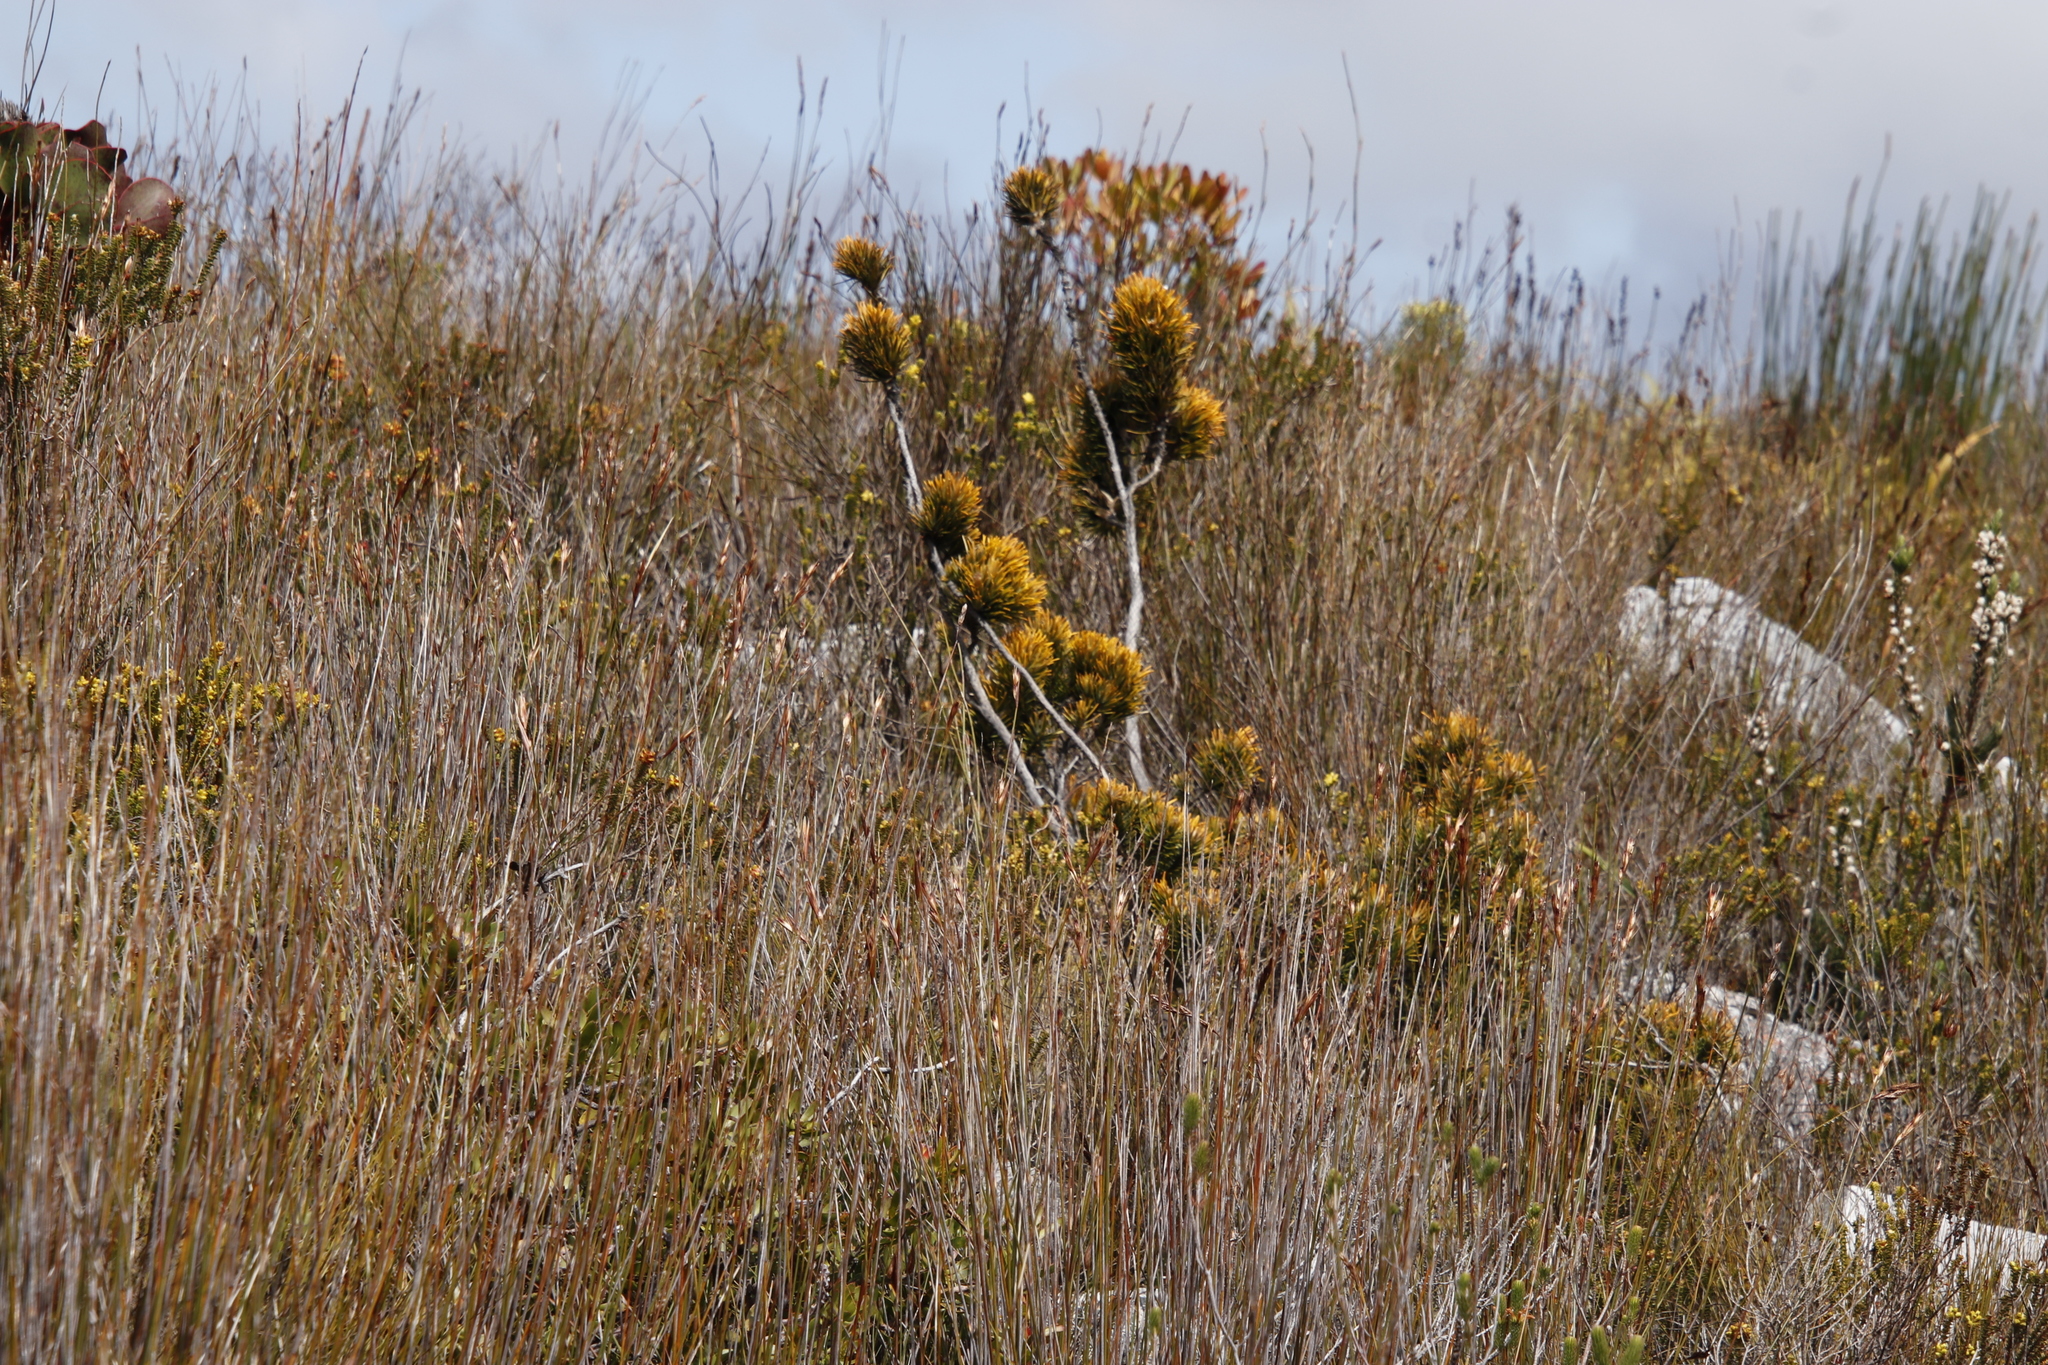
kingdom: Plantae
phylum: Tracheophyta
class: Magnoliopsida
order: Lamiales
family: Stilbaceae
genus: Retzia
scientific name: Retzia capensis
